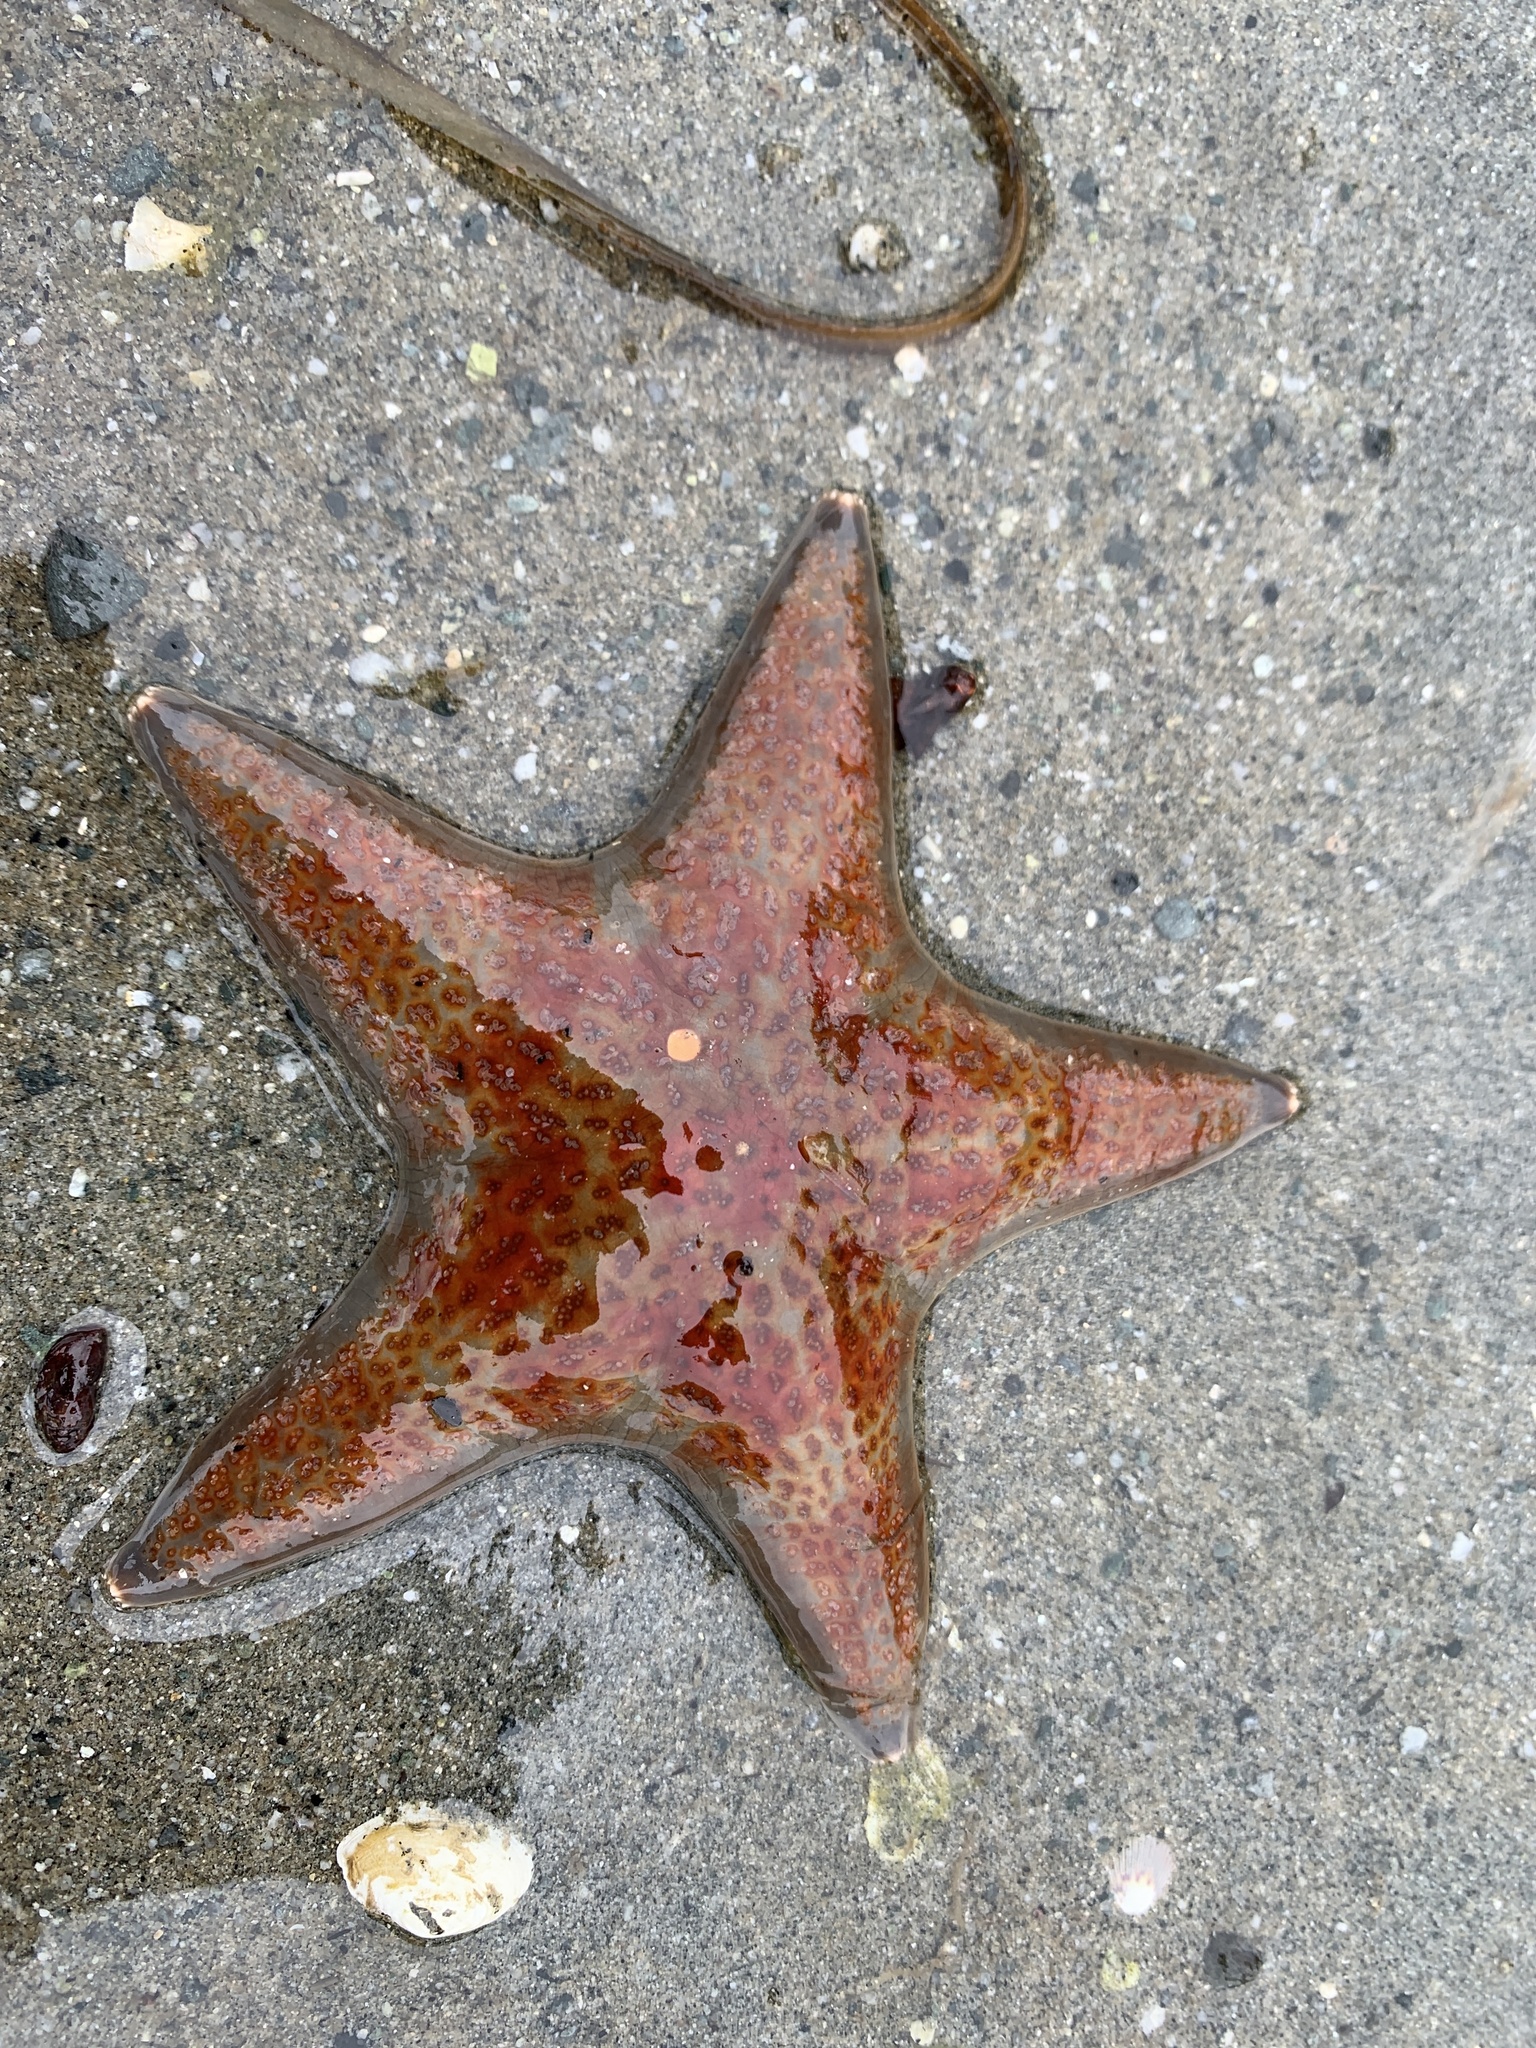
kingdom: Animalia
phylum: Echinodermata
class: Asteroidea
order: Valvatida
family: Asteropseidae
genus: Dermasterias
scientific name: Dermasterias imbricata
